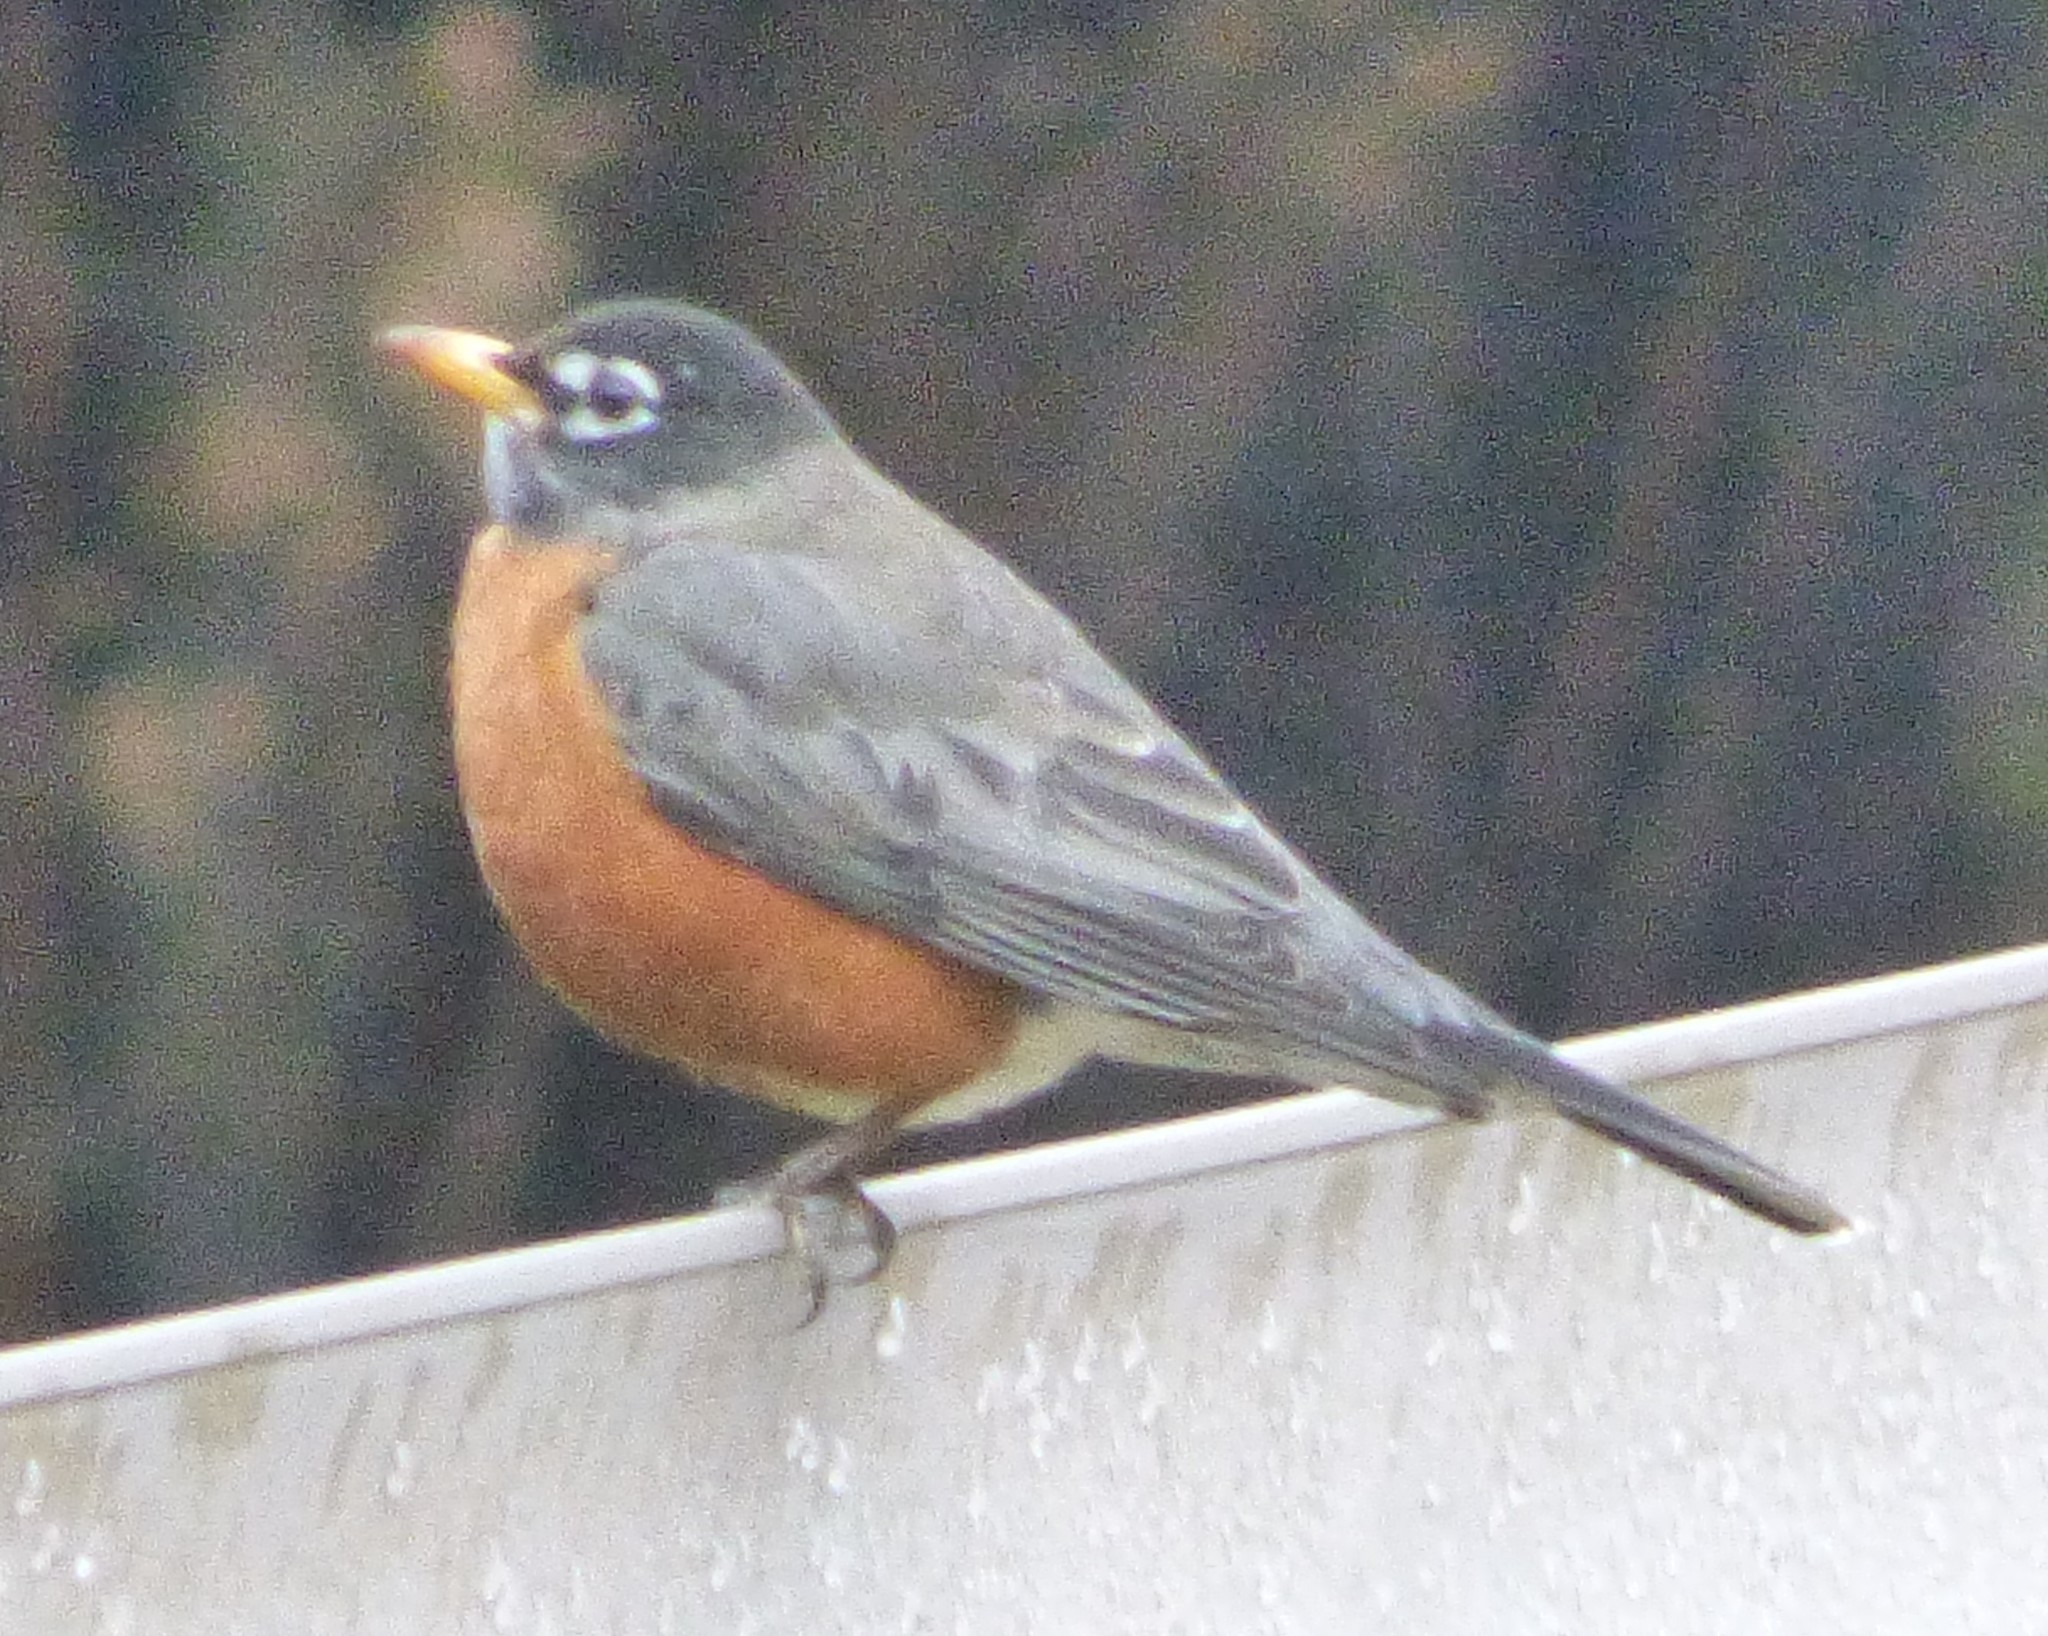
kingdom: Animalia
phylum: Chordata
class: Aves
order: Passeriformes
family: Turdidae
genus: Turdus
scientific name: Turdus migratorius
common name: American robin
